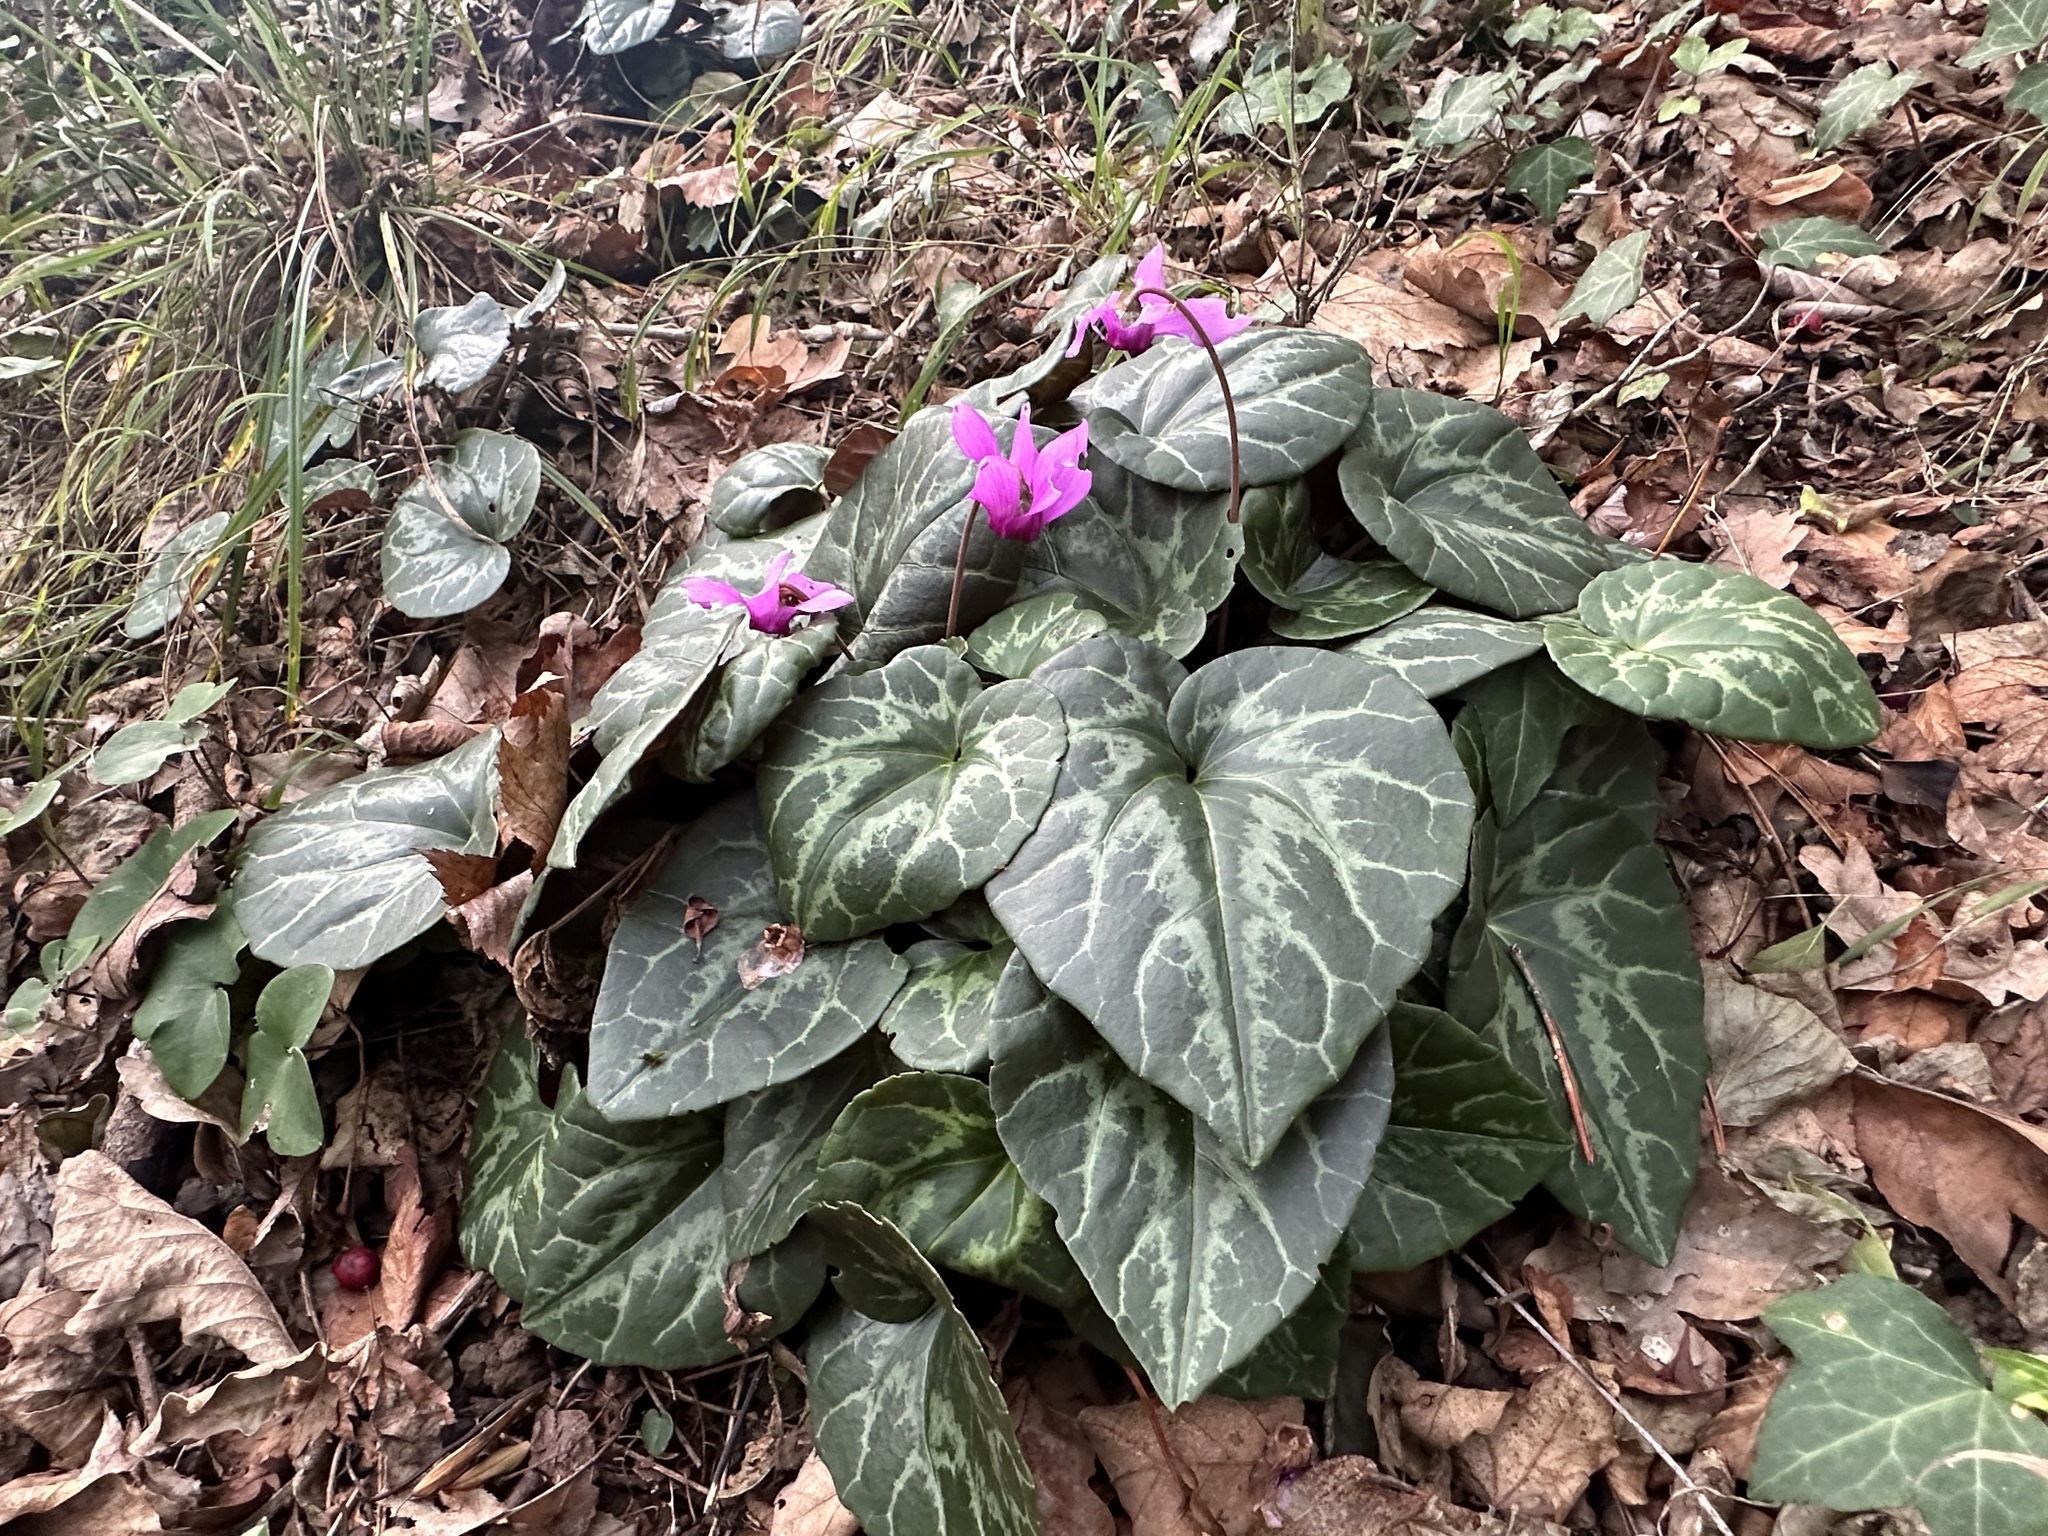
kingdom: Plantae
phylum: Tracheophyta
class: Magnoliopsida
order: Ericales
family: Primulaceae
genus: Cyclamen
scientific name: Cyclamen purpurascens
